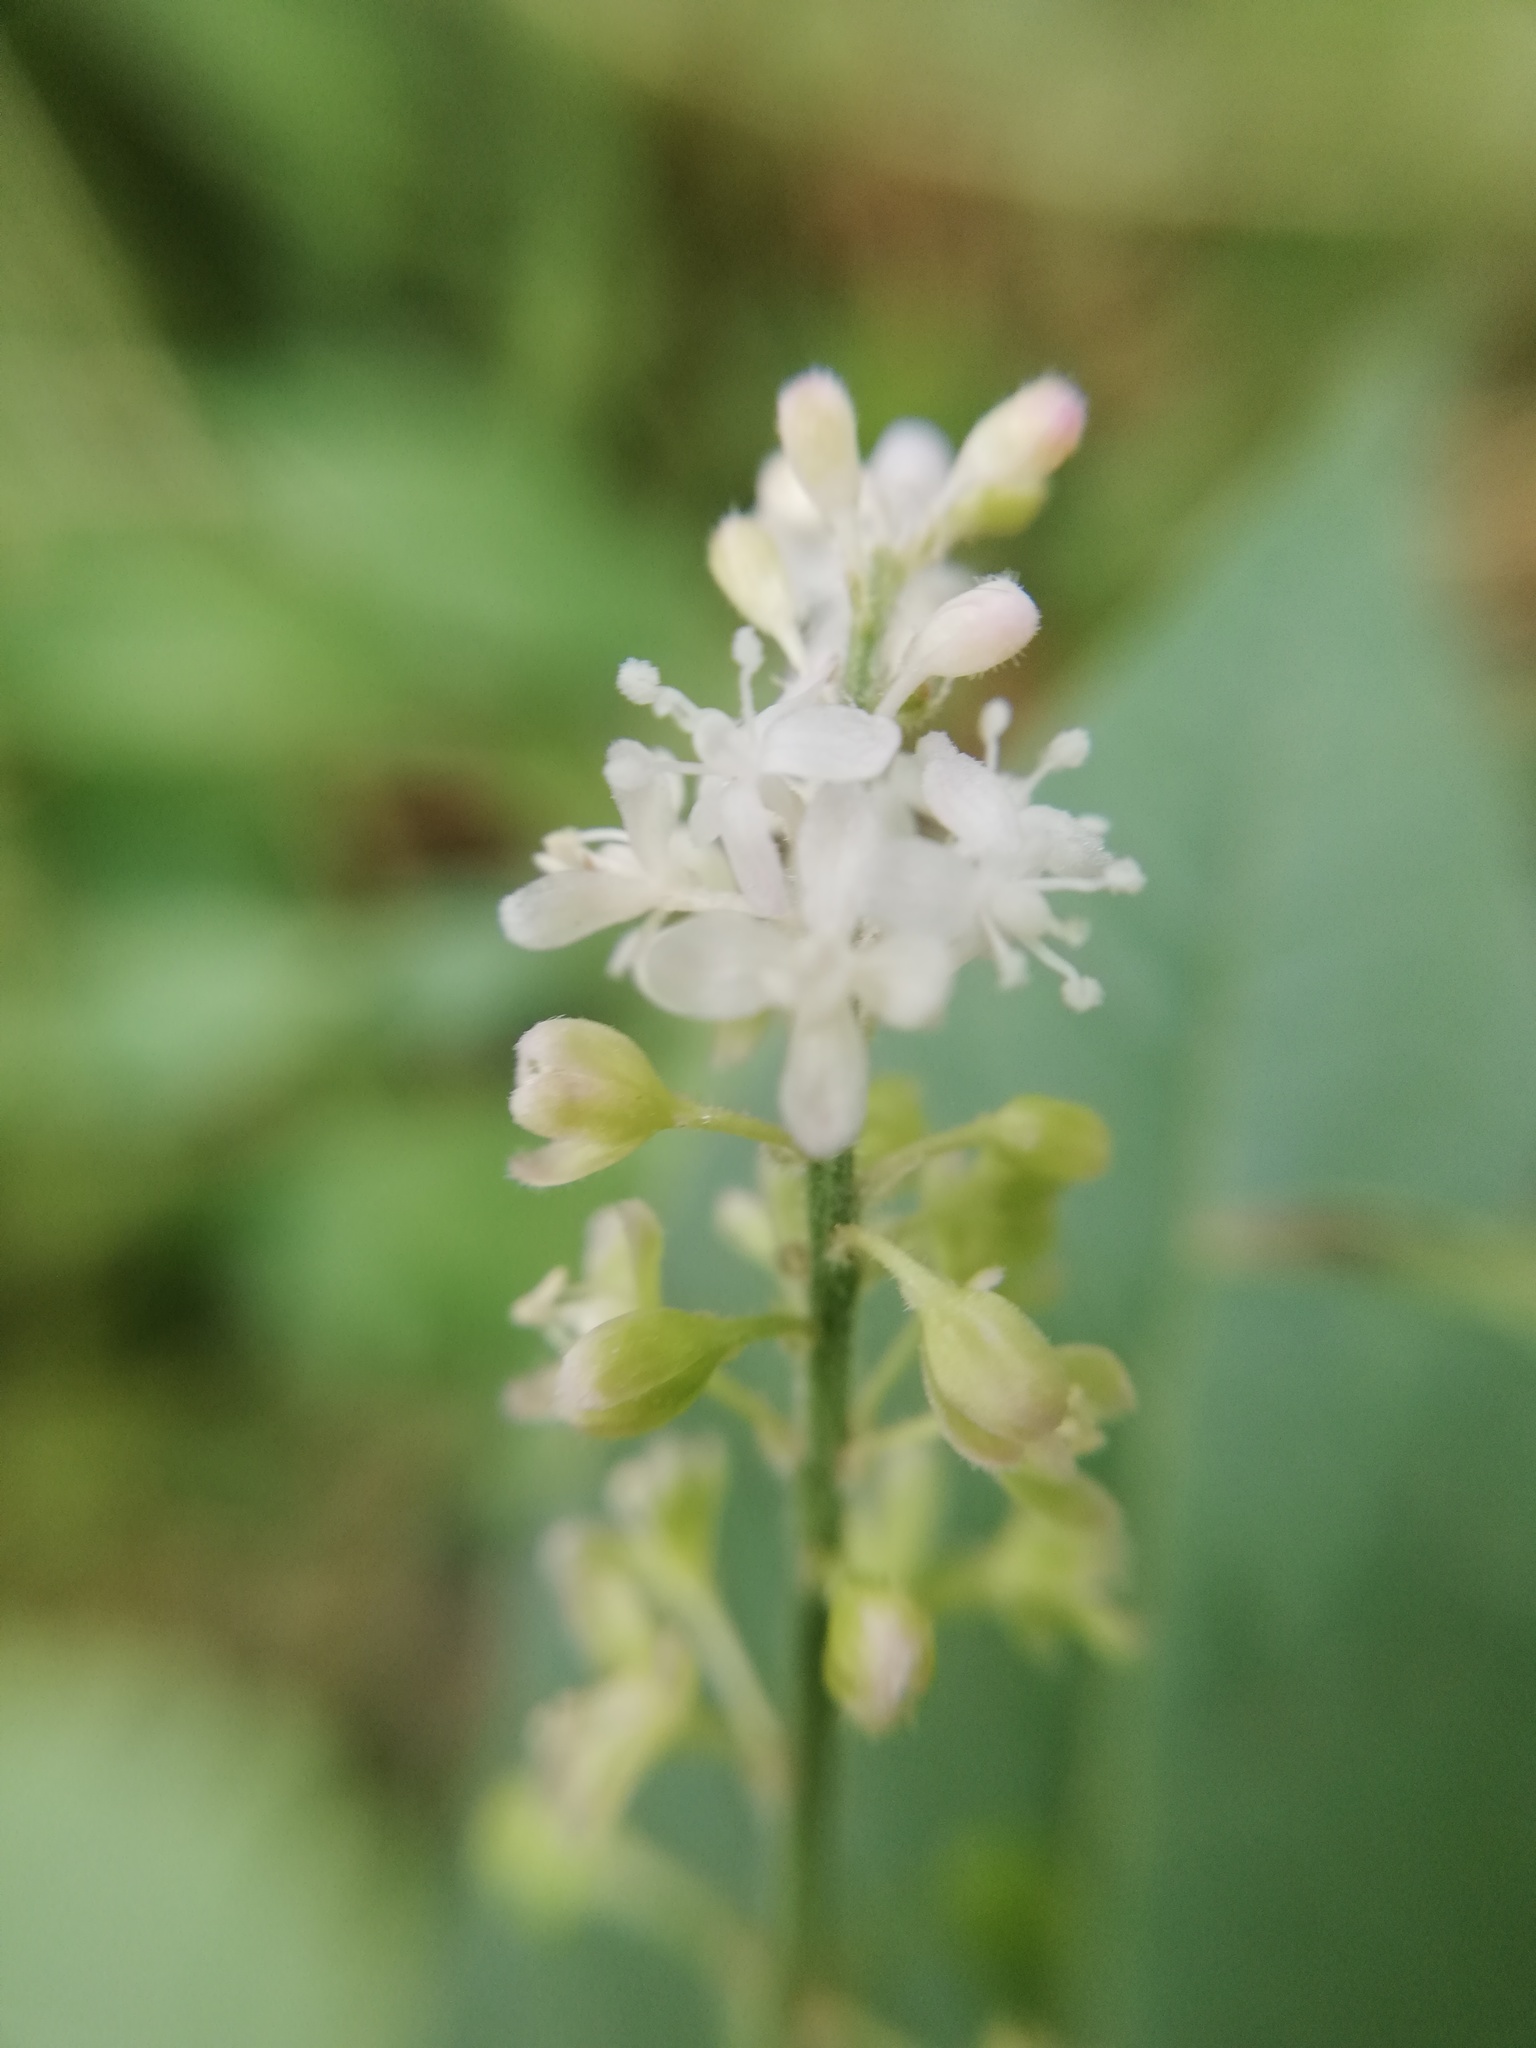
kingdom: Plantae
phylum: Tracheophyta
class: Magnoliopsida
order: Caryophyllales
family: Phytolaccaceae
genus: Rivina
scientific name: Rivina humilis
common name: Rougeplant
